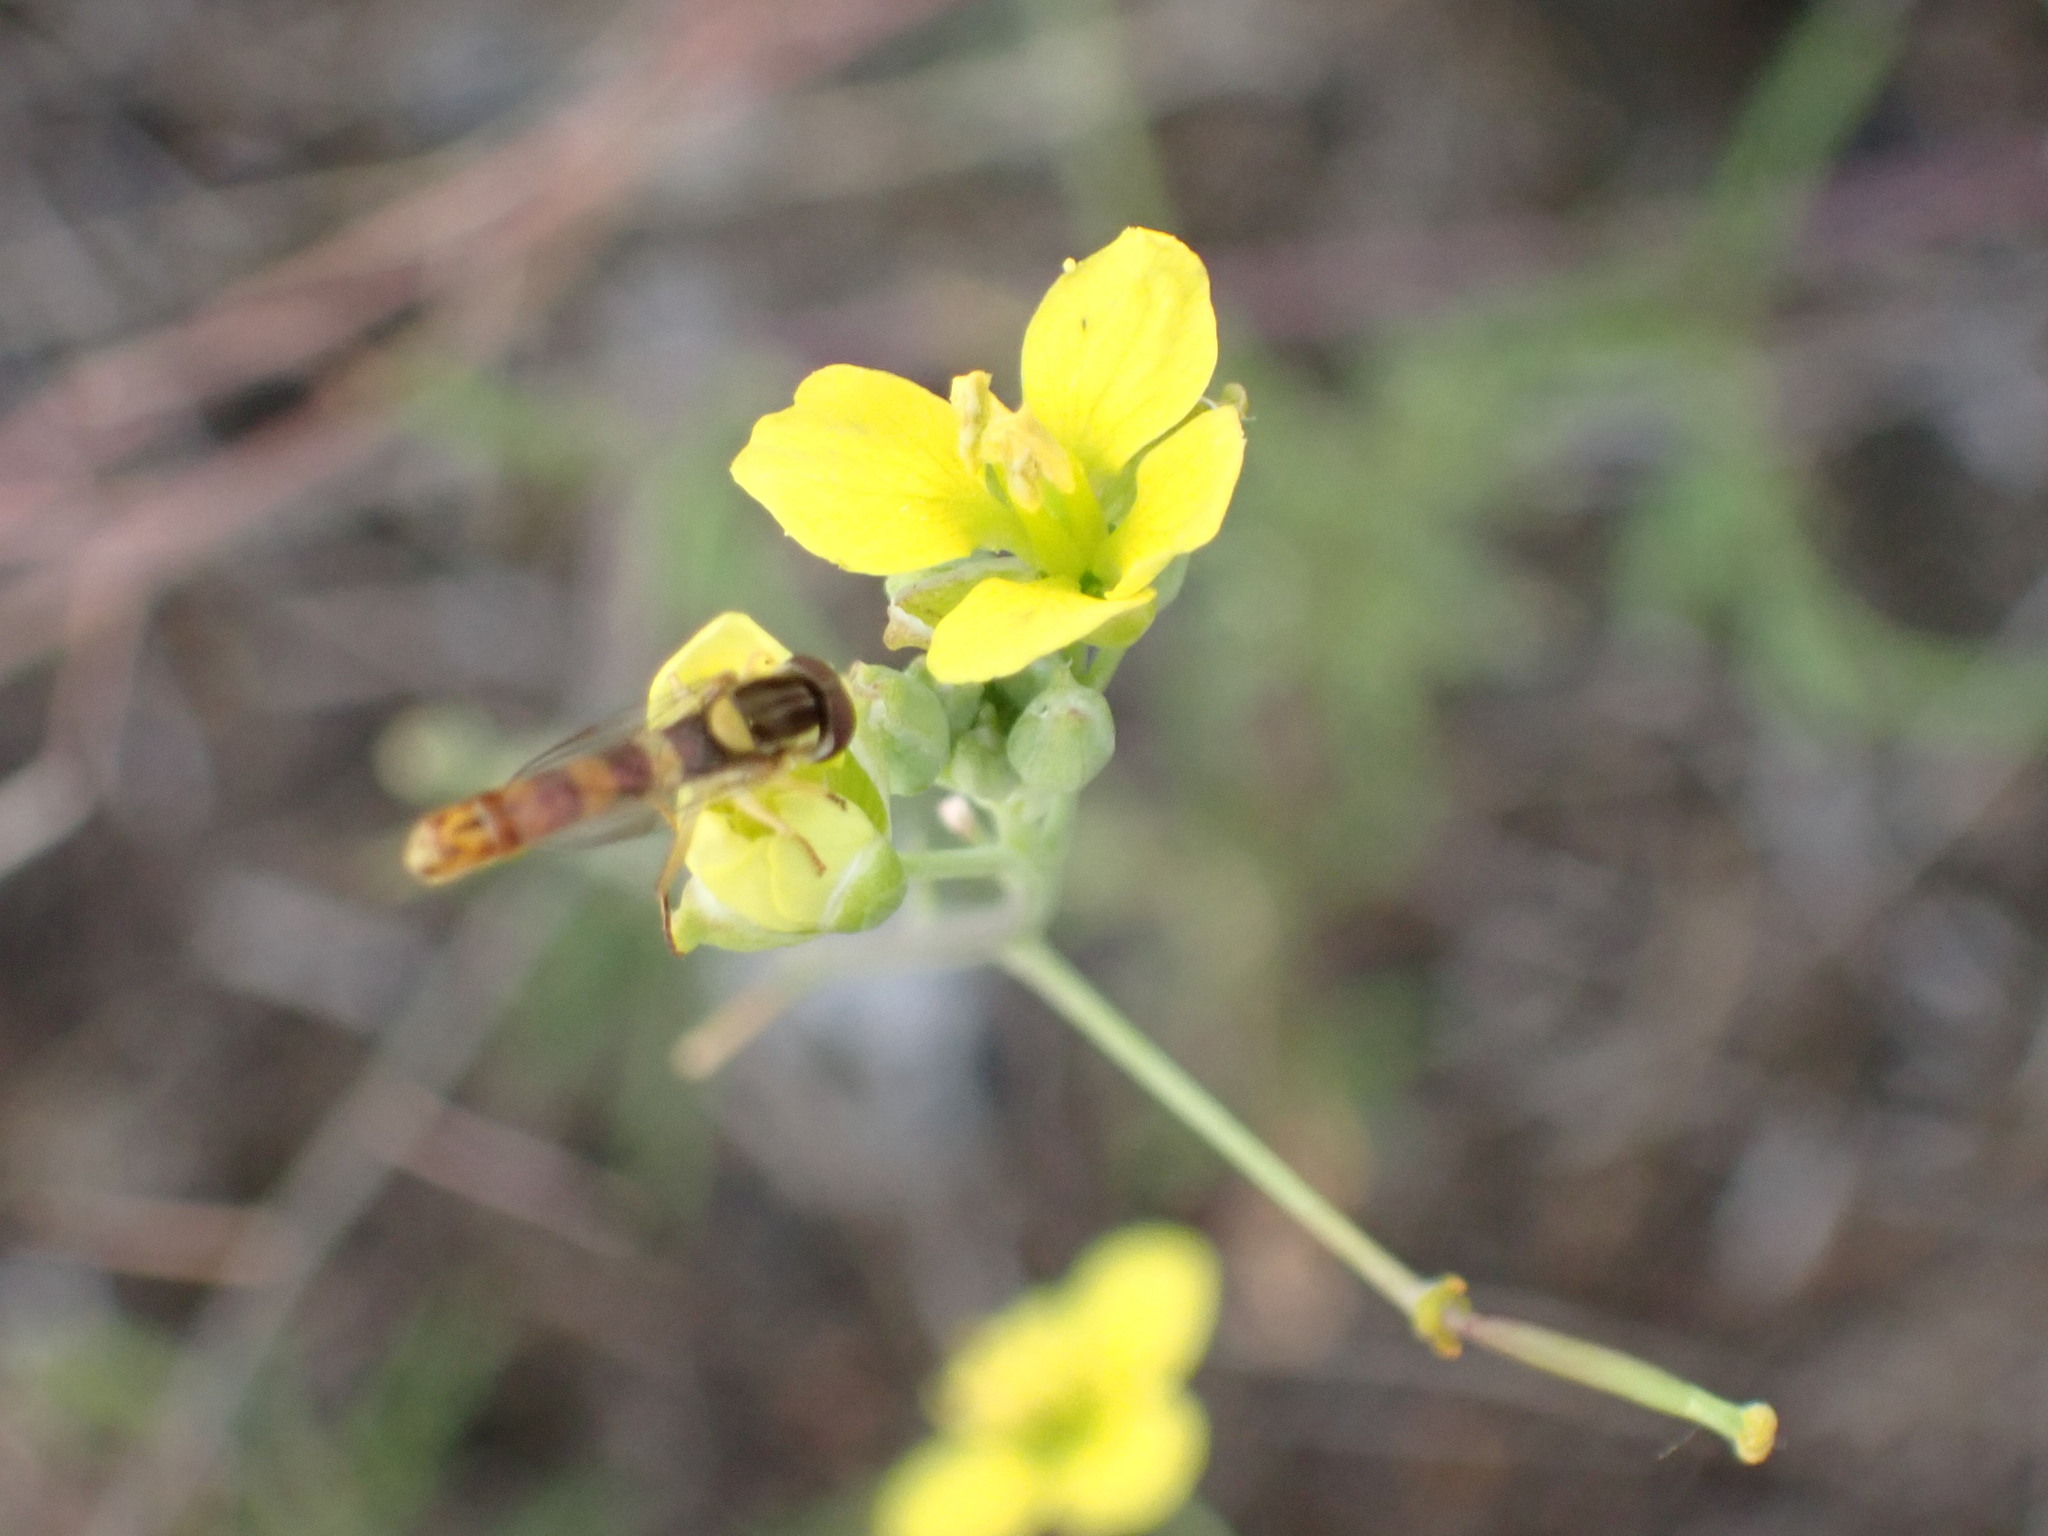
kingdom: Animalia
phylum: Arthropoda
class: Insecta
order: Diptera
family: Syrphidae
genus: Sphaerophoria
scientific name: Sphaerophoria scripta
